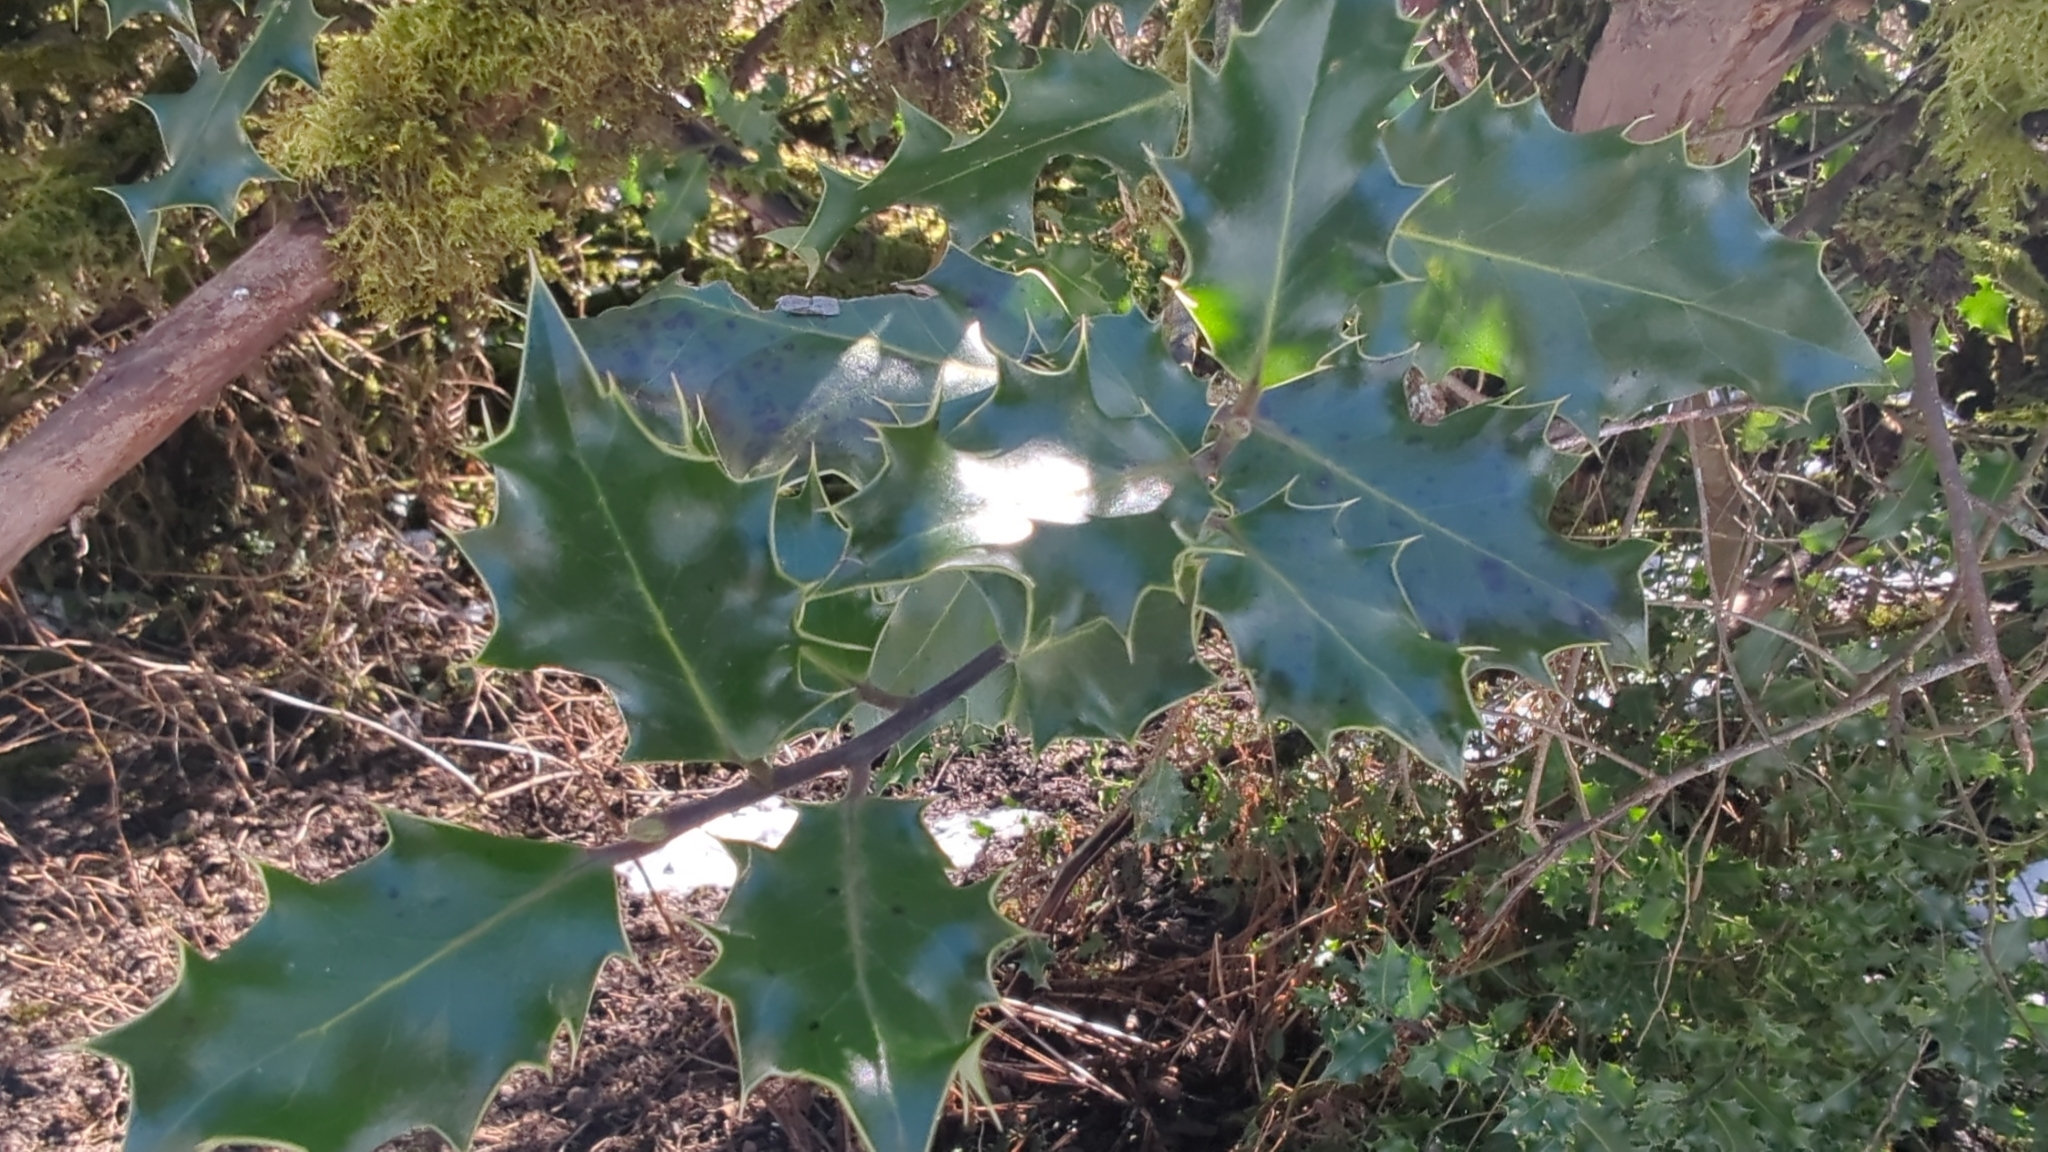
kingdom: Plantae
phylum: Tracheophyta
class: Magnoliopsida
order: Aquifoliales
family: Aquifoliaceae
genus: Ilex
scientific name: Ilex aquifolium
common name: English holly
